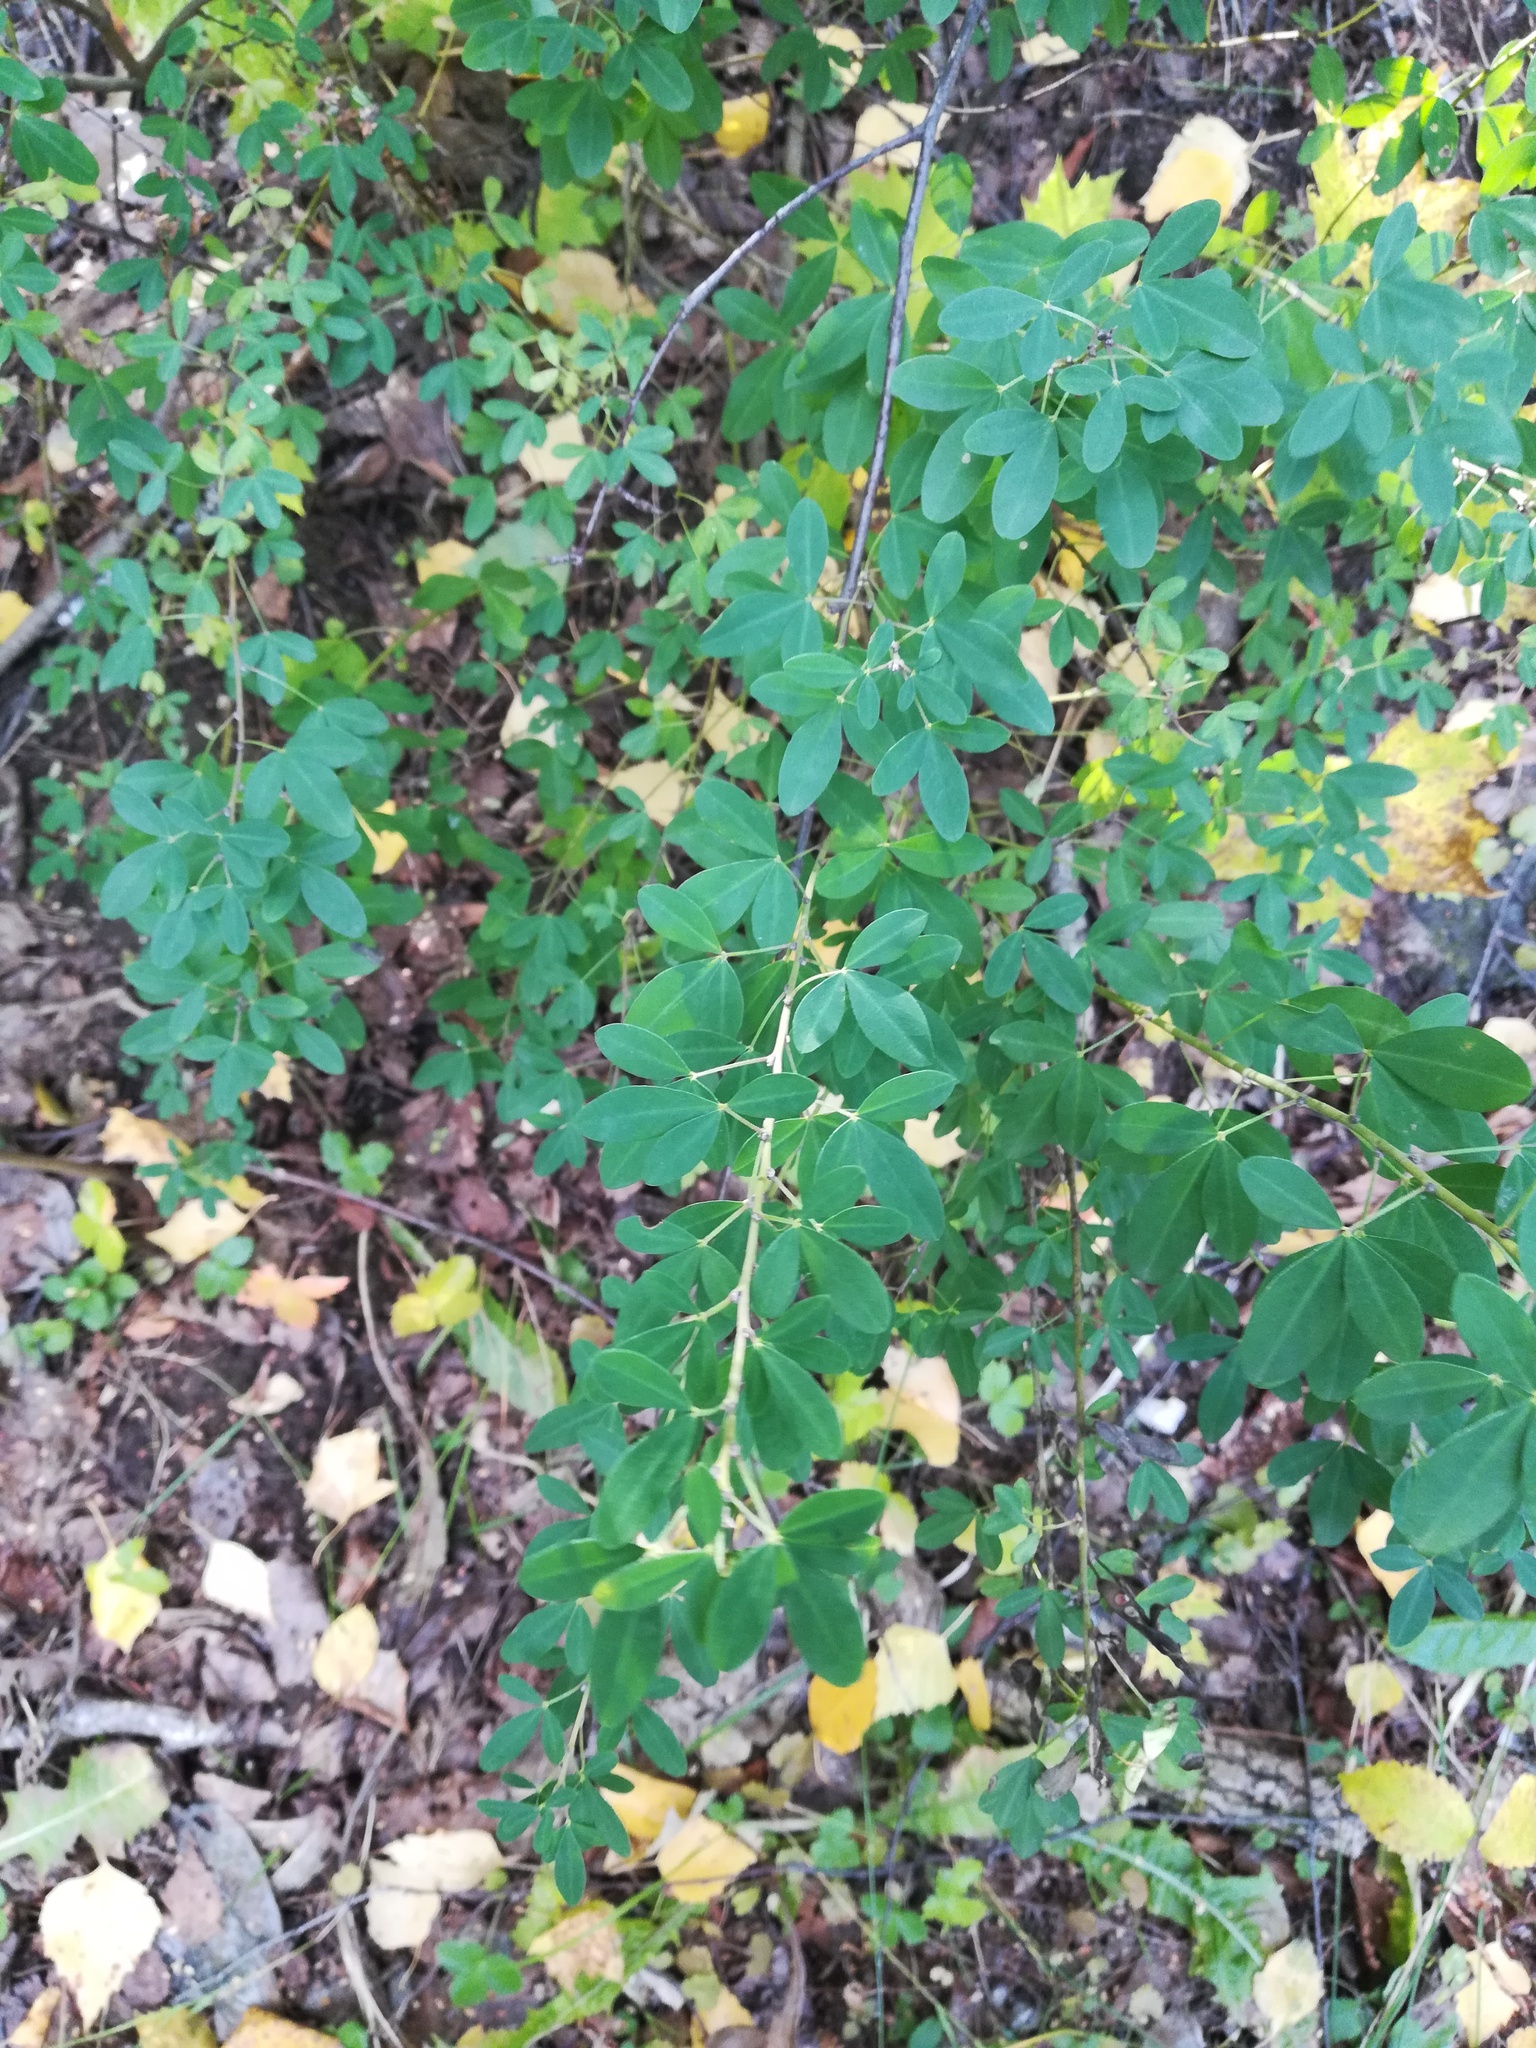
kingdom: Plantae
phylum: Tracheophyta
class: Magnoliopsida
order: Fabales
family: Fabaceae
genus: Chamaecytisus
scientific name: Chamaecytisus ruthenicus
